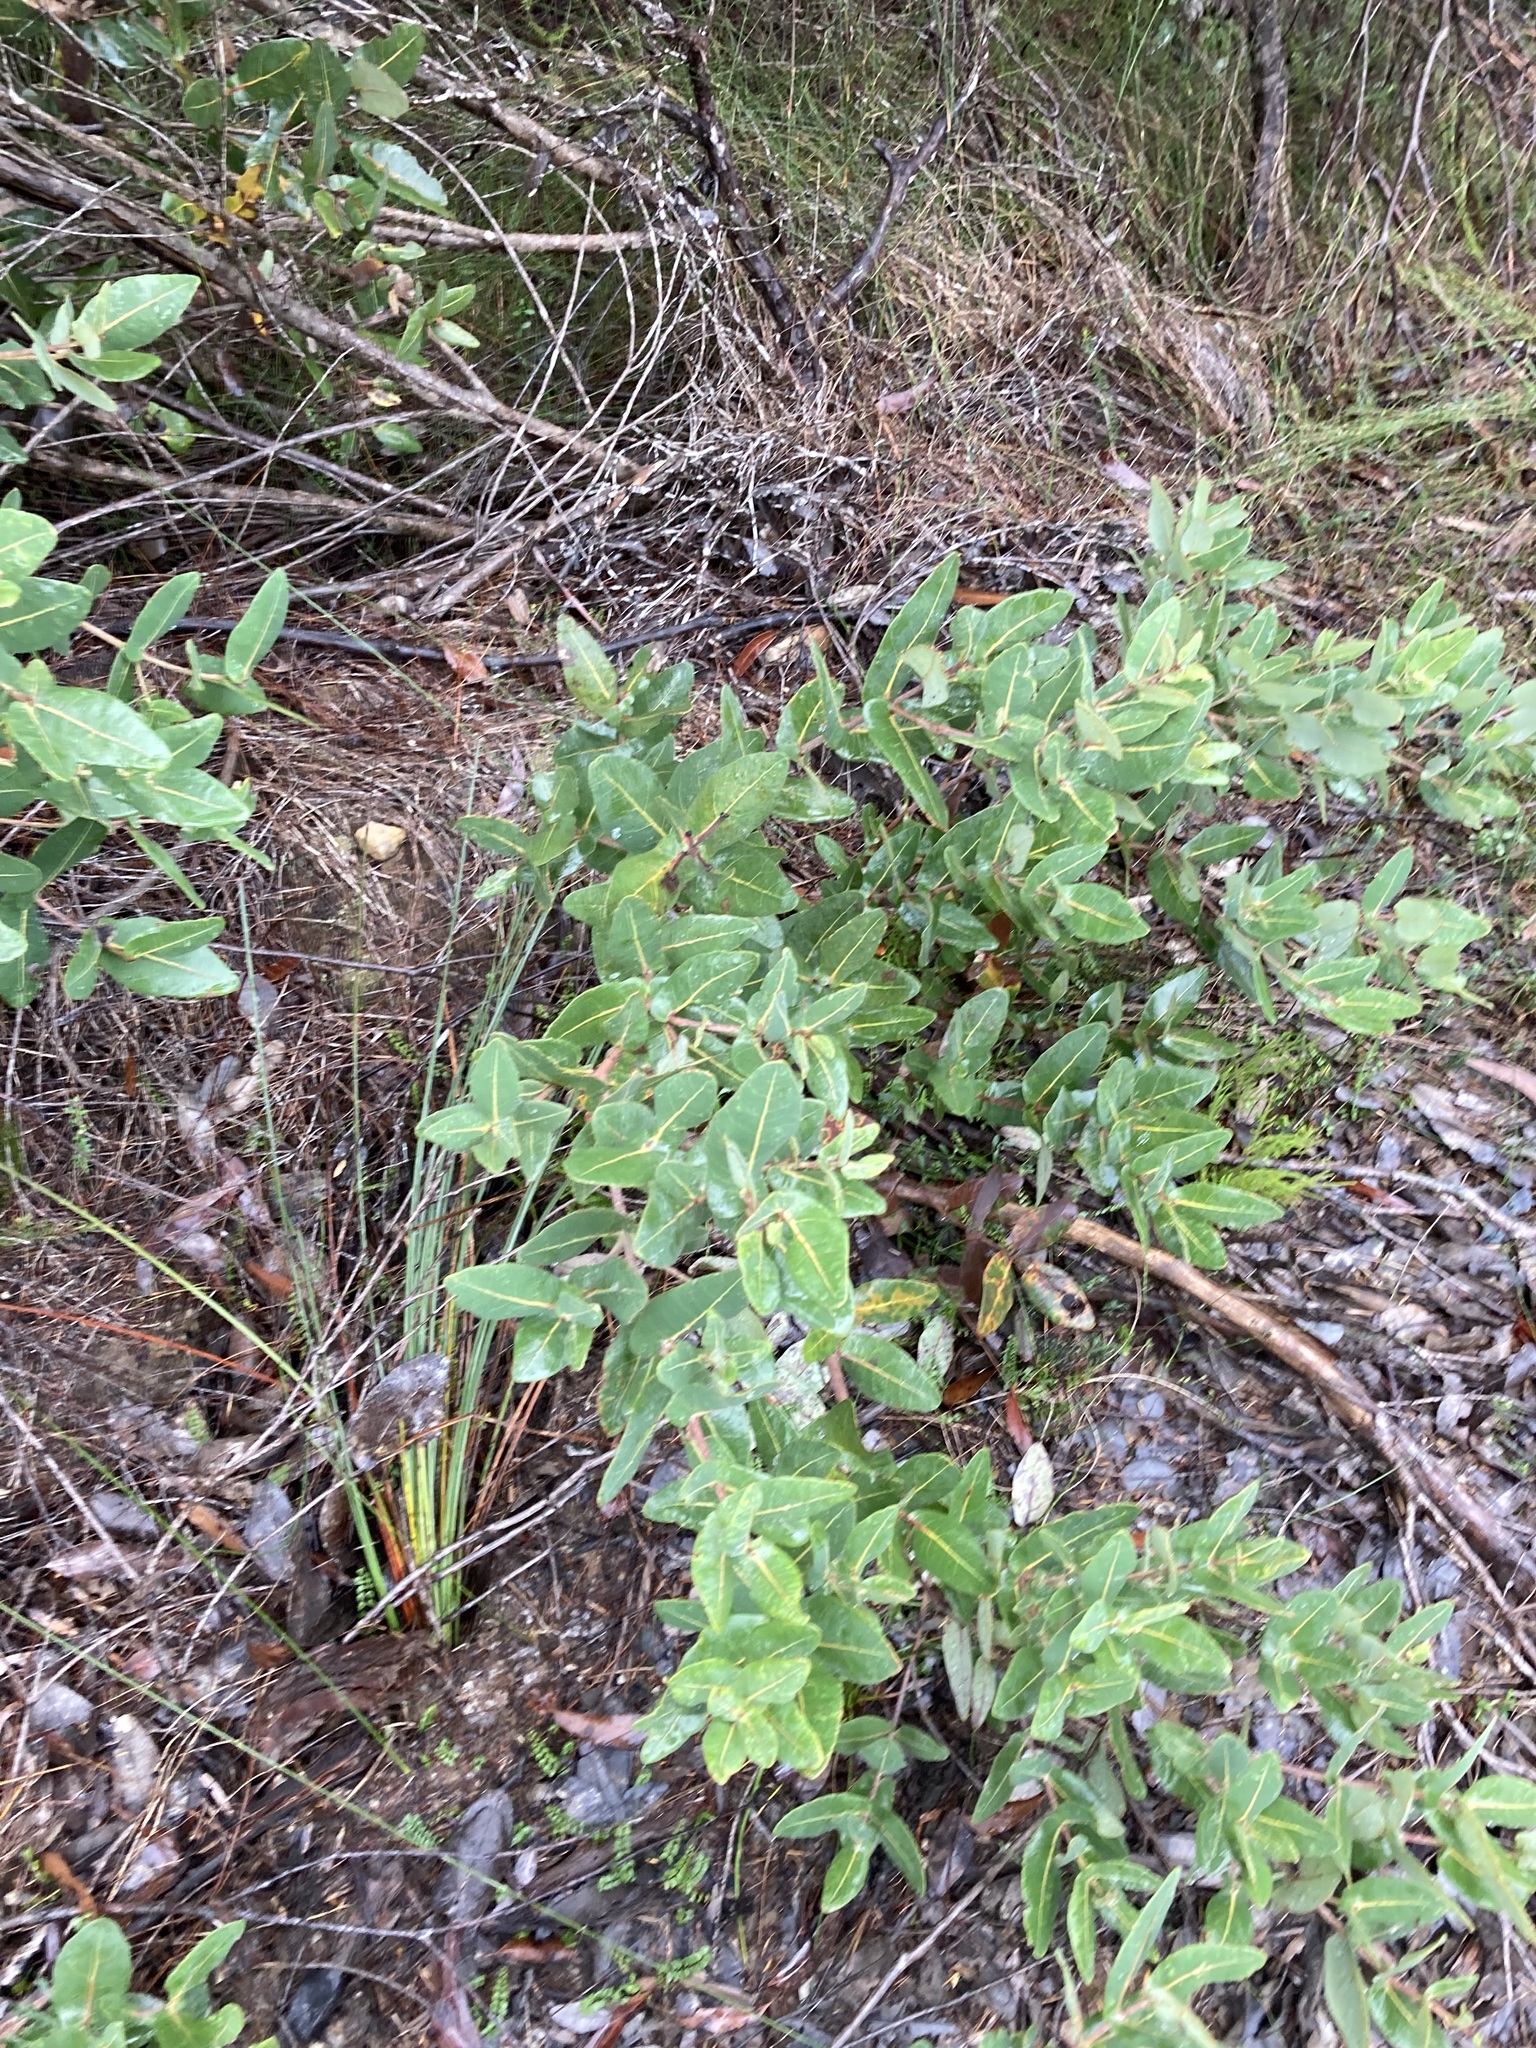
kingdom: Plantae
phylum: Tracheophyta
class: Magnoliopsida
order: Myrtales
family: Myrtaceae
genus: Angophora
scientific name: Angophora hispida
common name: Dwarf-apple
